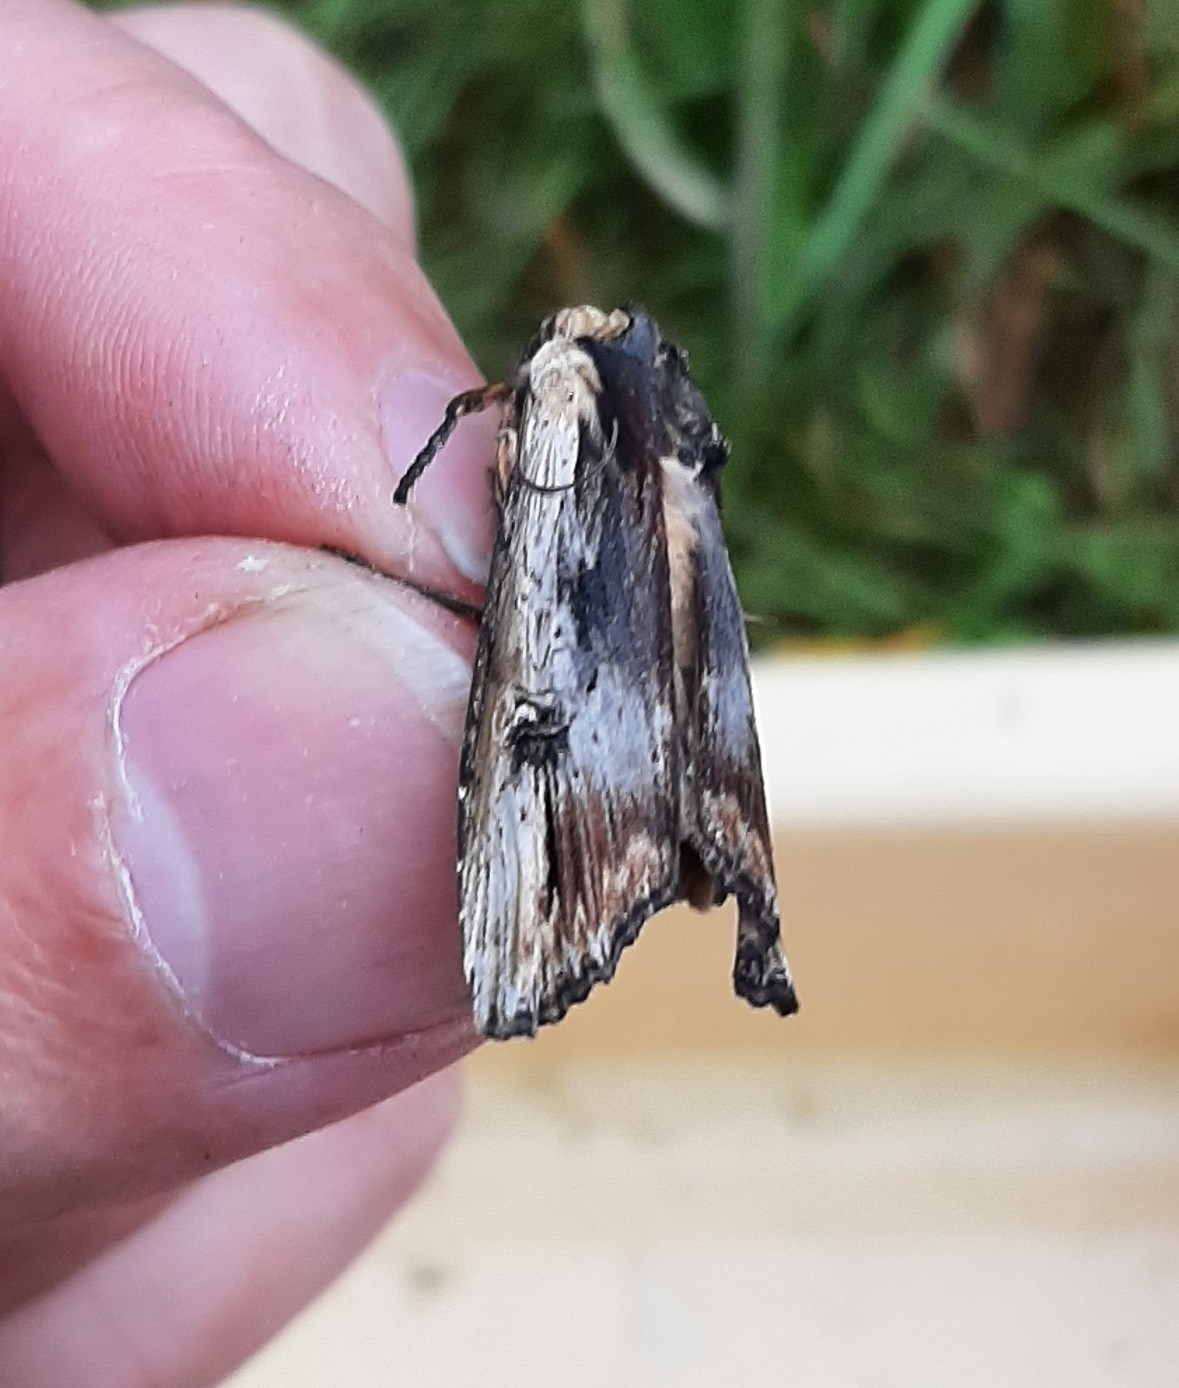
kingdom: Animalia
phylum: Arthropoda
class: Insecta
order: Lepidoptera
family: Noctuidae
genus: Xylena
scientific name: Xylena vetusta
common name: Red sword-grass
